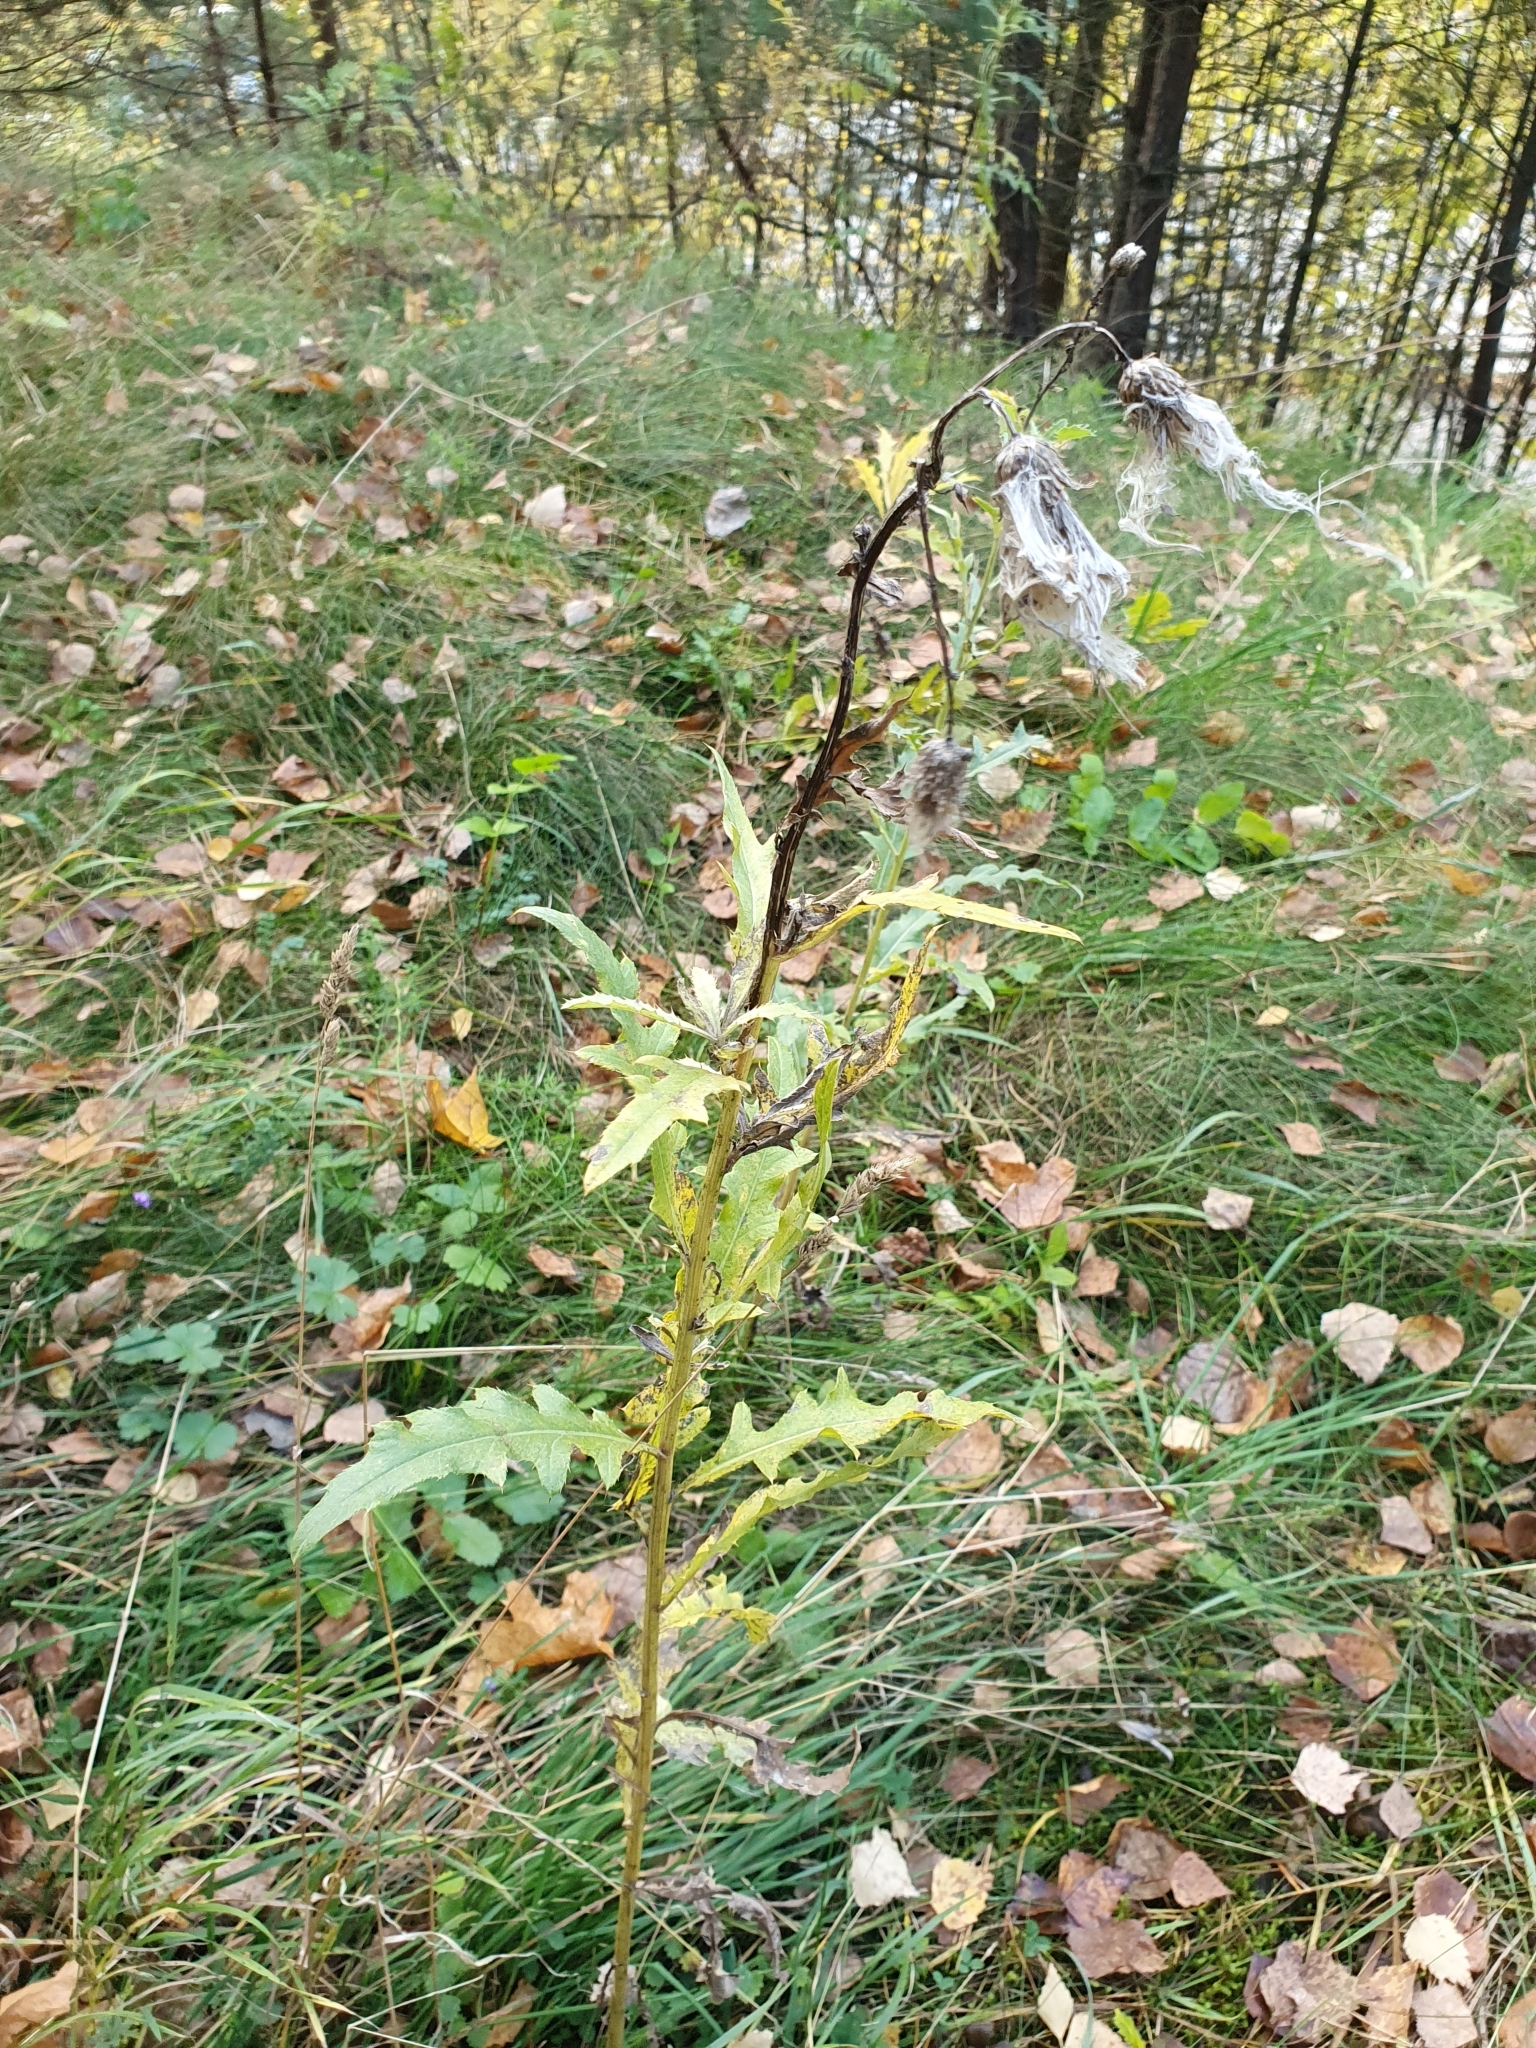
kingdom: Plantae
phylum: Tracheophyta
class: Magnoliopsida
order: Asterales
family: Asteraceae
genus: Cirsium
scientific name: Cirsium arvense
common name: Creeping thistle
